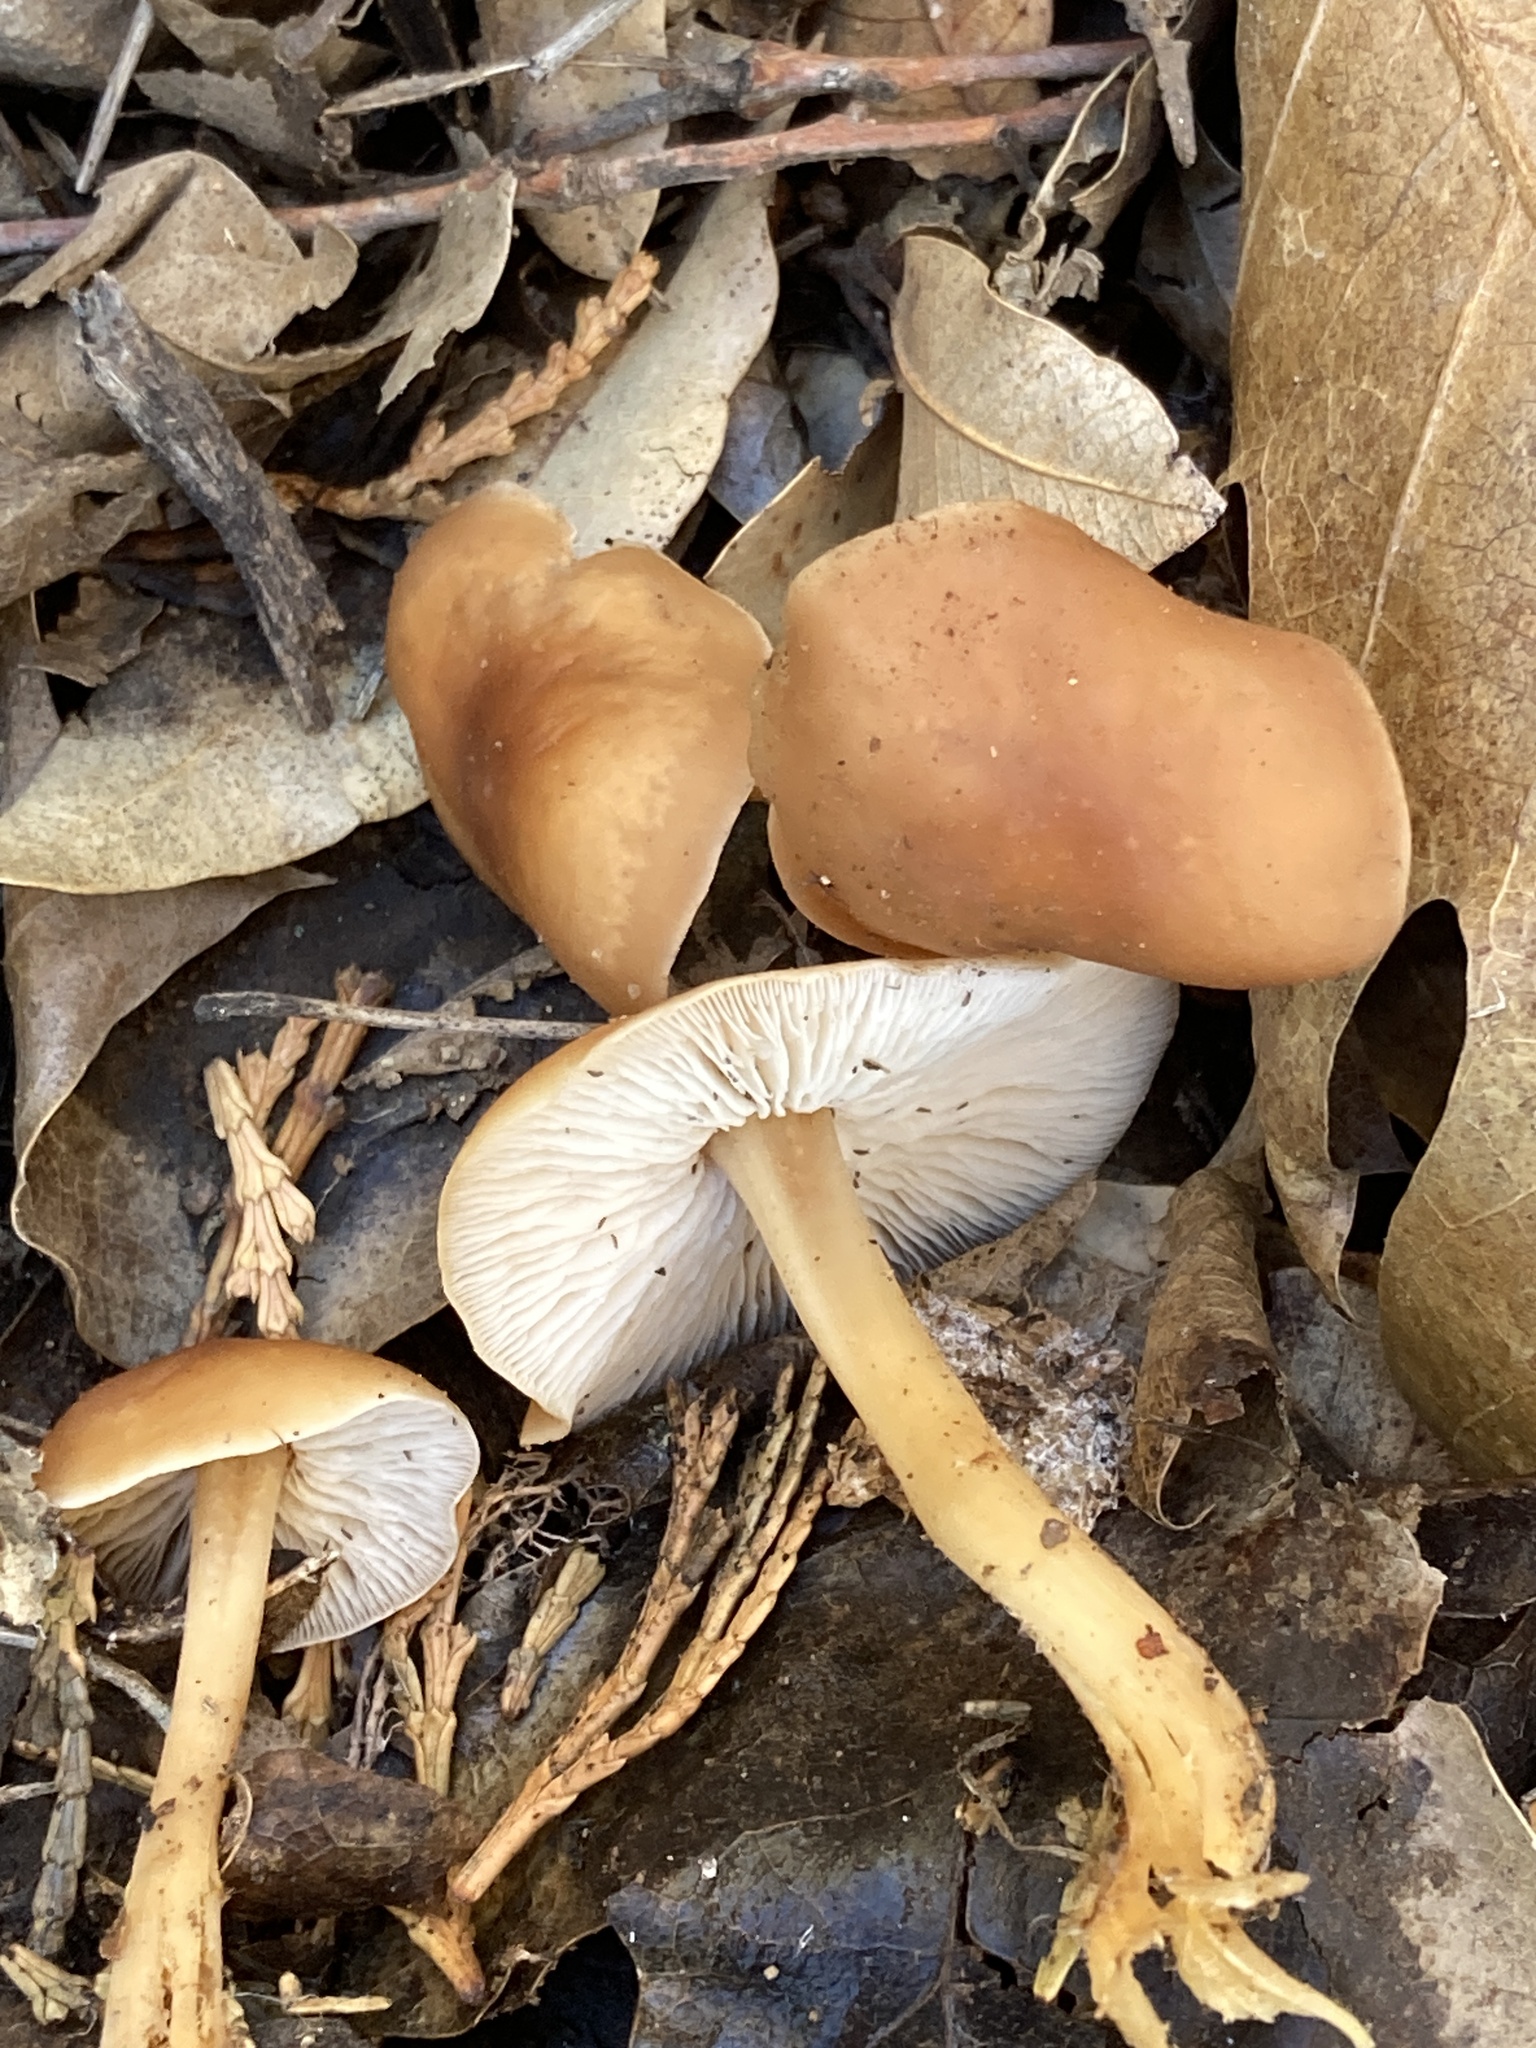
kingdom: Fungi
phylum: Basidiomycota
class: Agaricomycetes
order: Agaricales
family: Omphalotaceae
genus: Gymnopus
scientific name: Gymnopus dryophilus
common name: Penny top
